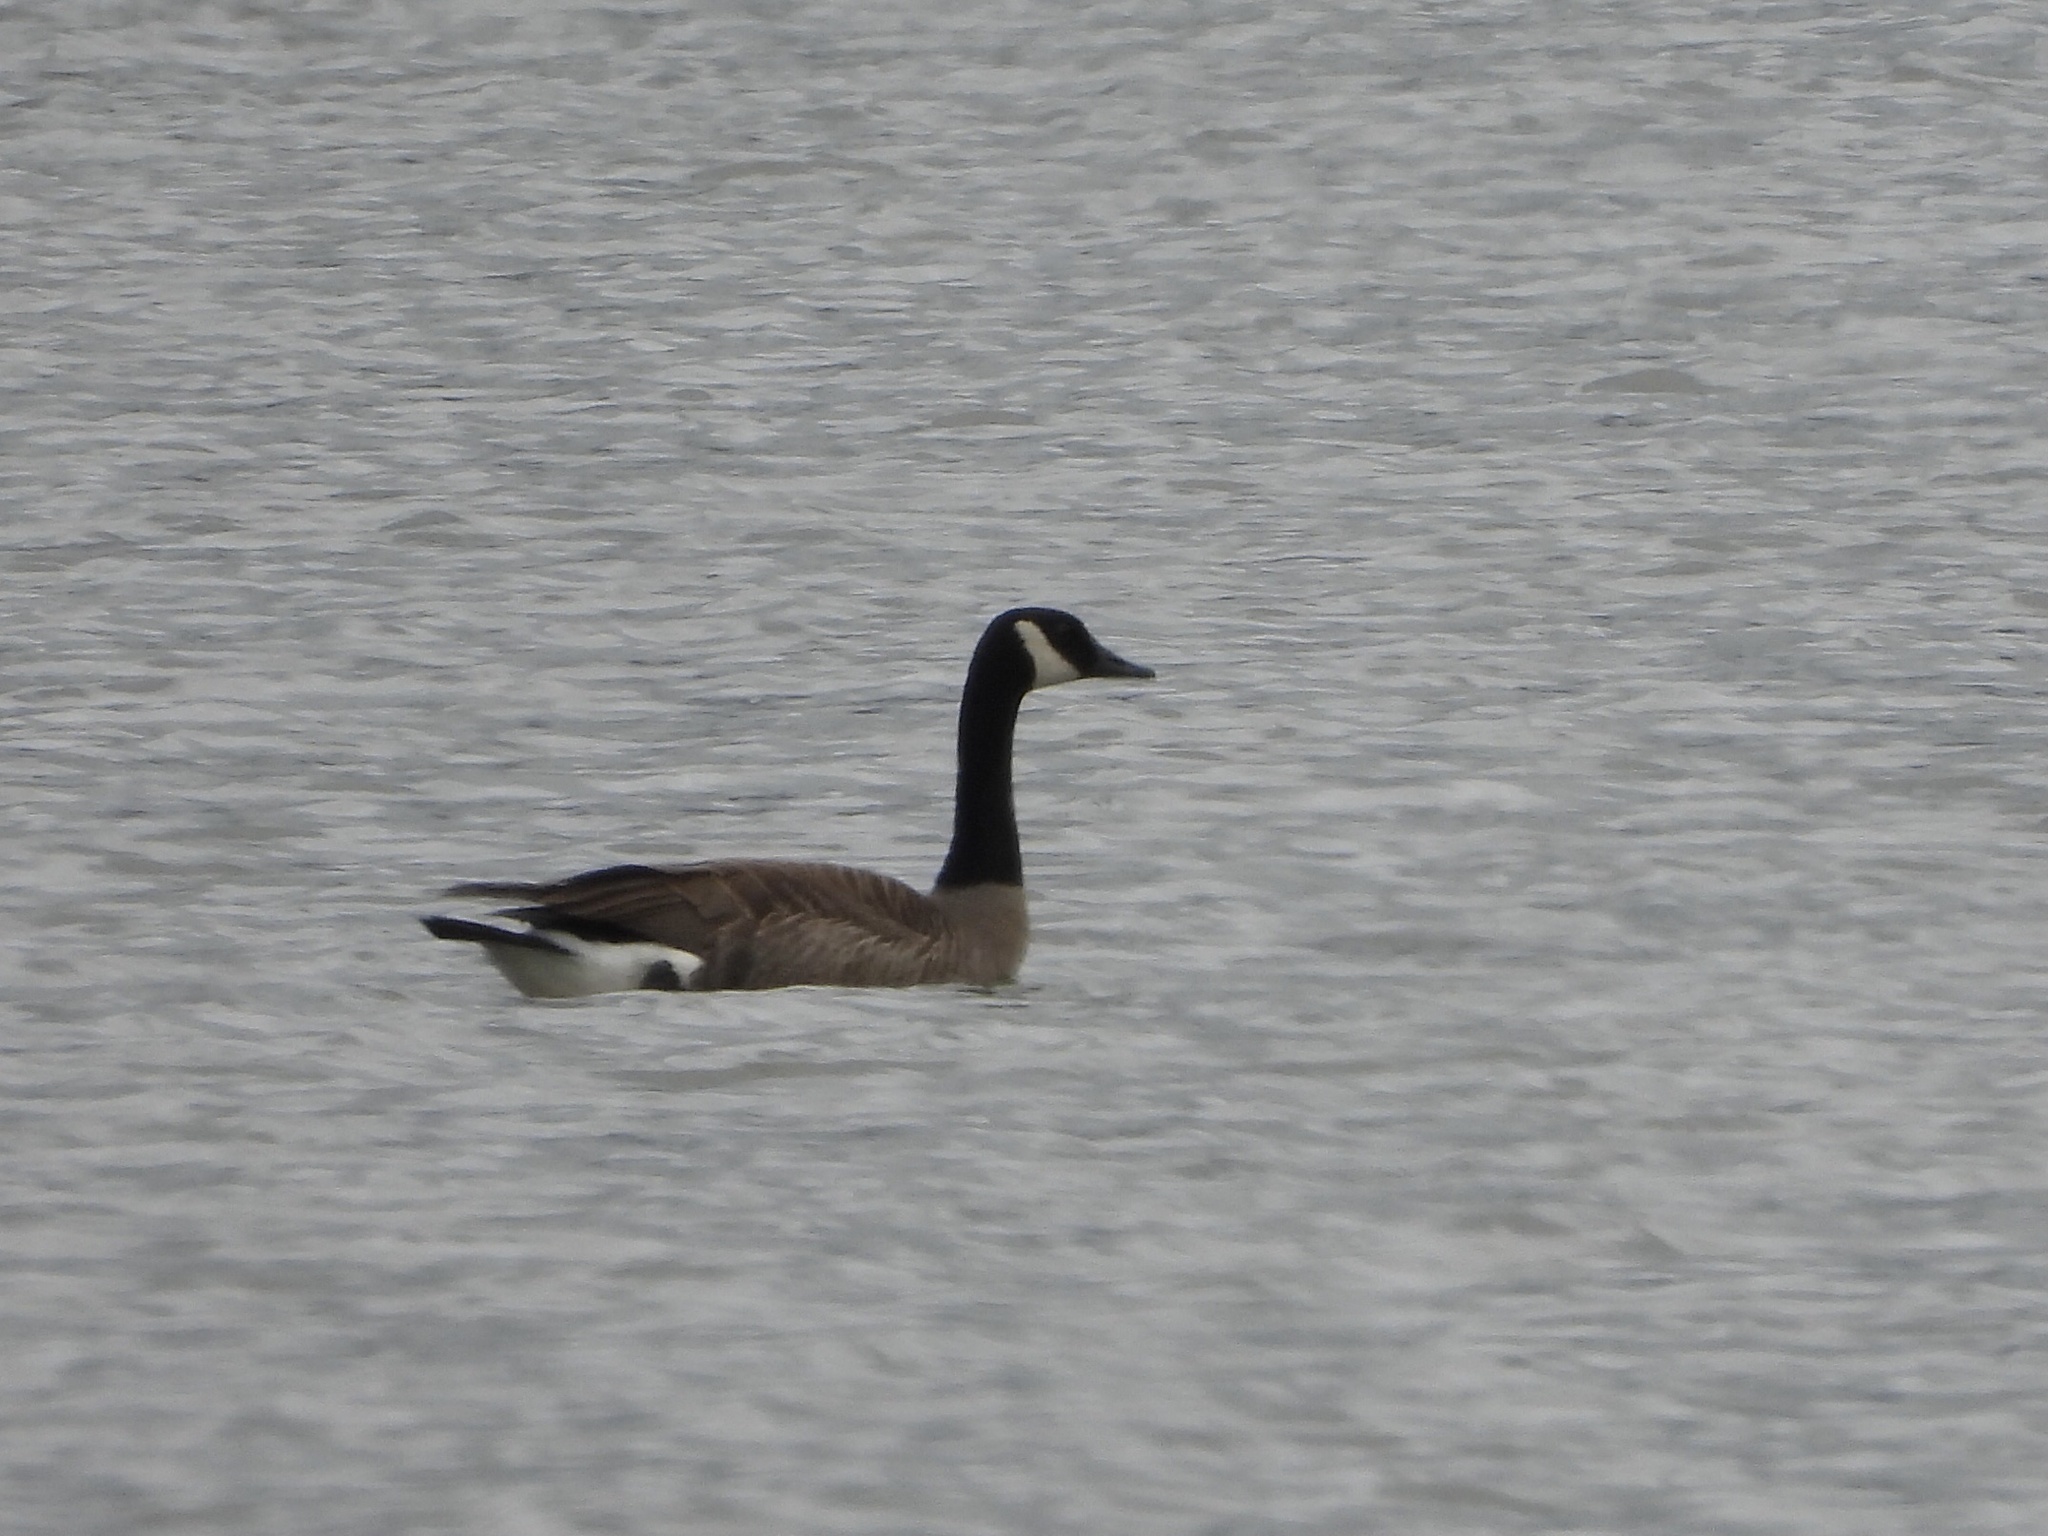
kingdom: Animalia
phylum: Chordata
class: Aves
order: Anseriformes
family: Anatidae
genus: Branta
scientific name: Branta canadensis
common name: Canada goose
